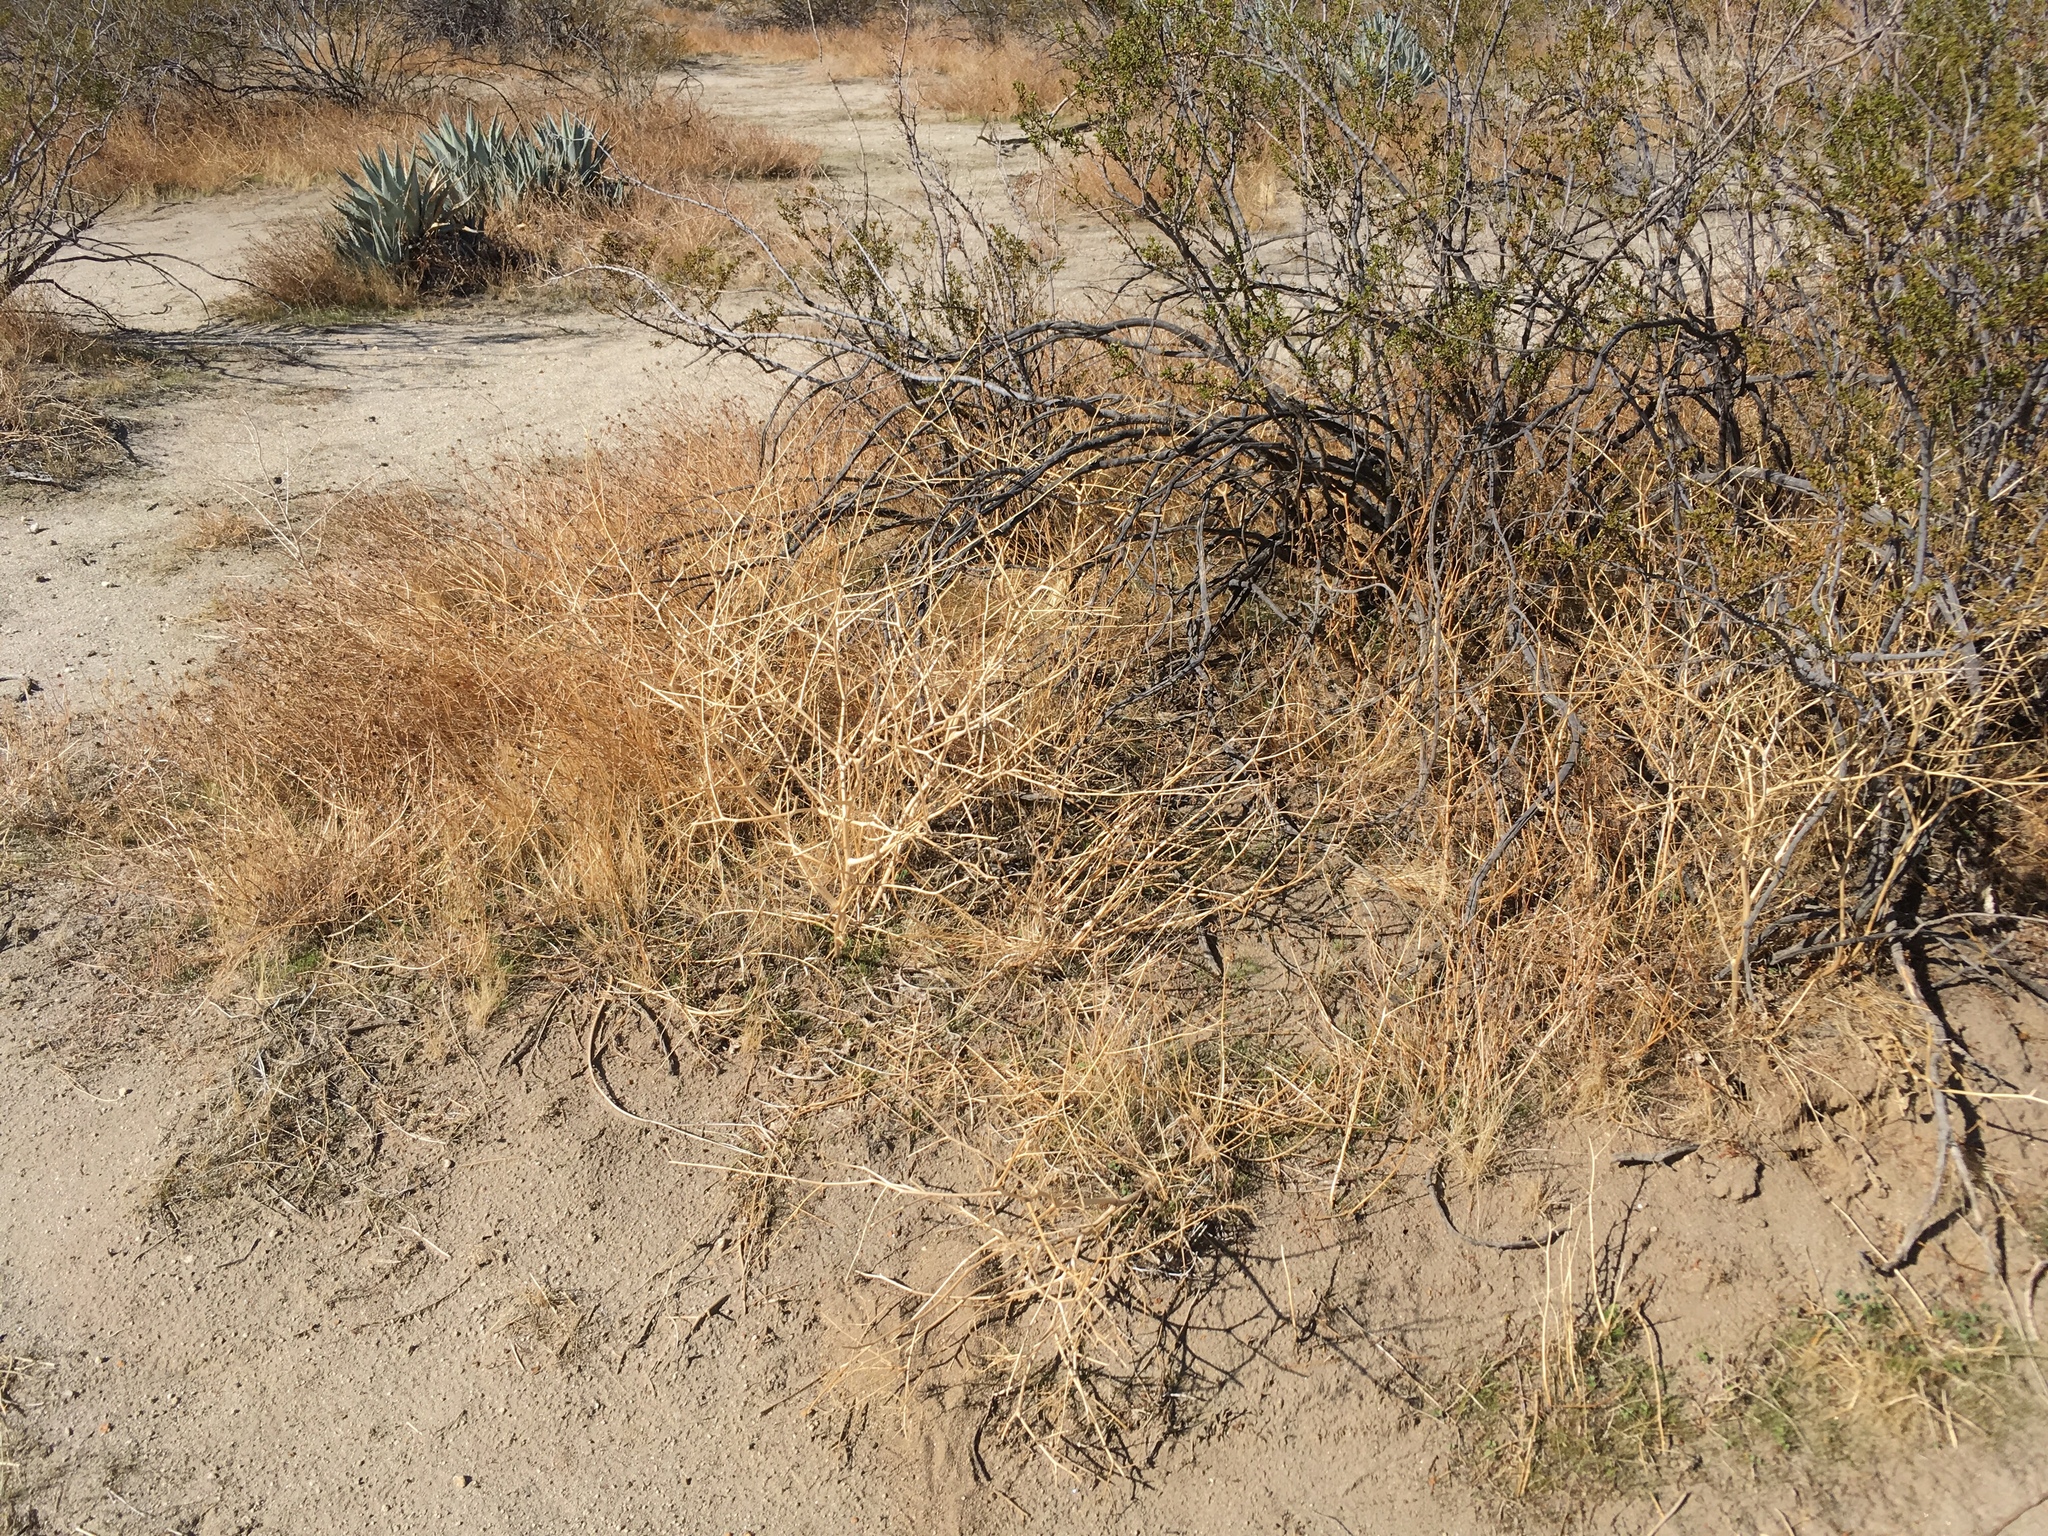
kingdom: Plantae
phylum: Tracheophyta
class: Magnoliopsida
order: Brassicales
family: Brassicaceae
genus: Brassica
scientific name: Brassica tournefortii
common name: Pale cabbage
